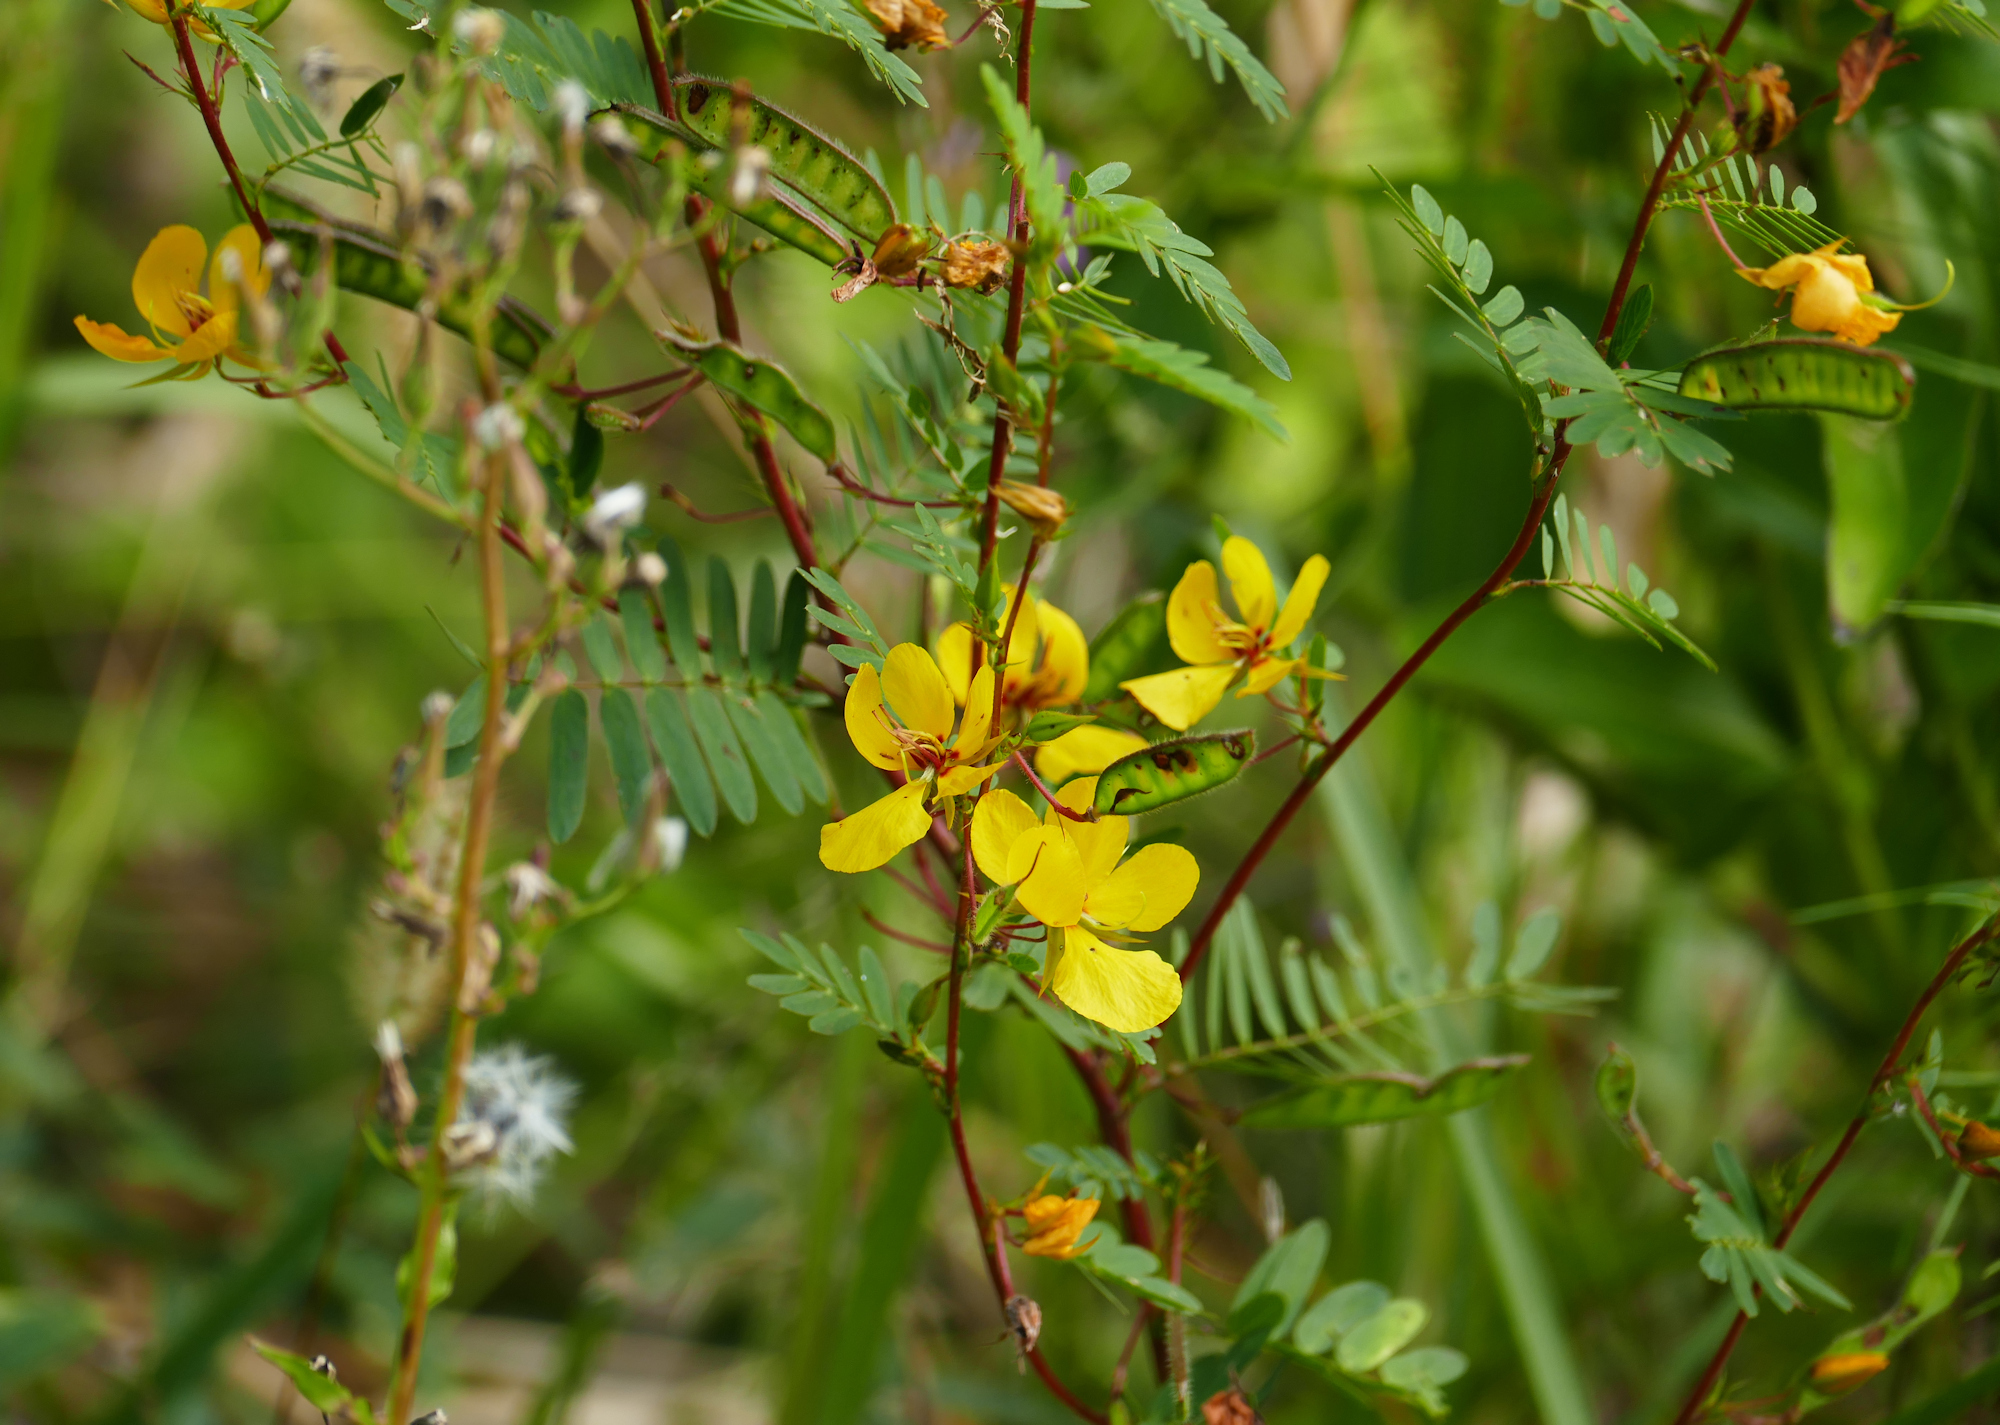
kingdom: Plantae
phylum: Tracheophyta
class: Magnoliopsida
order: Fabales
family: Fabaceae
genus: Chamaecrista
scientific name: Chamaecrista fasciculata
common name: Golden cassia
